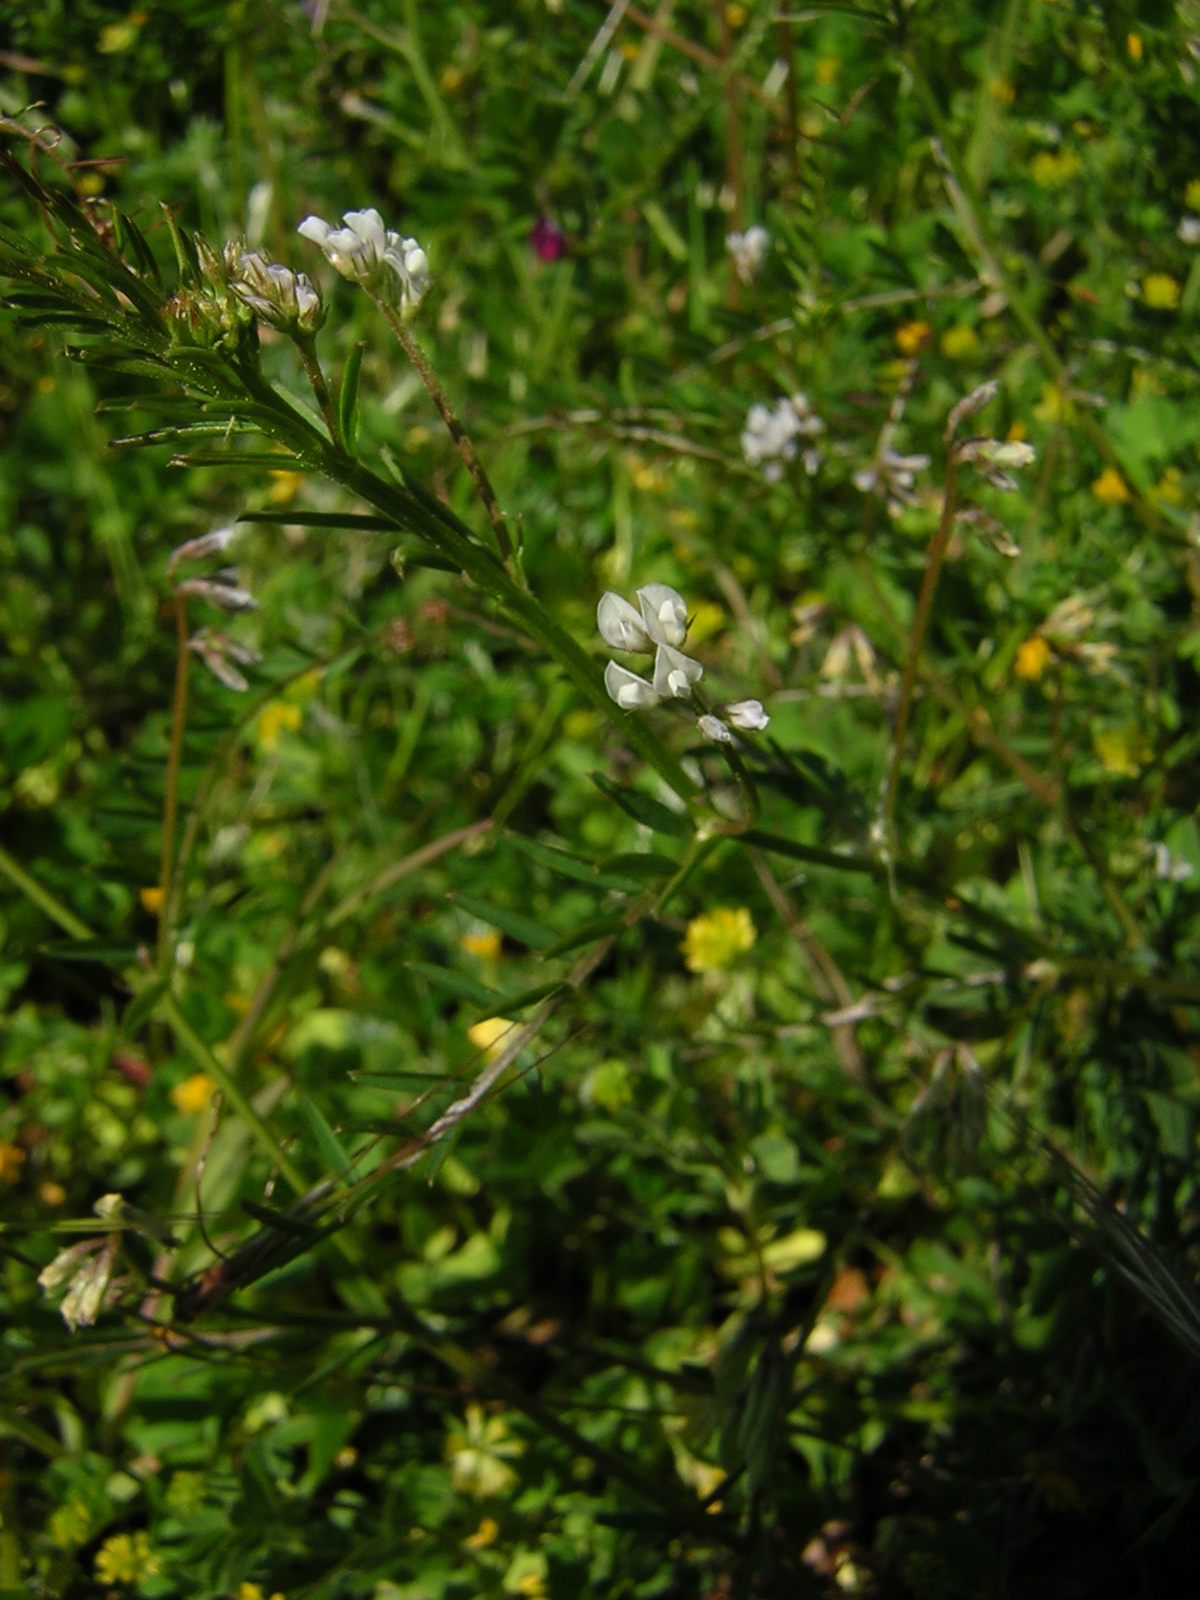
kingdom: Plantae
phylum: Tracheophyta
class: Magnoliopsida
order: Fabales
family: Fabaceae
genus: Vicia
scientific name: Vicia hirsuta
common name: Tiny vetch
